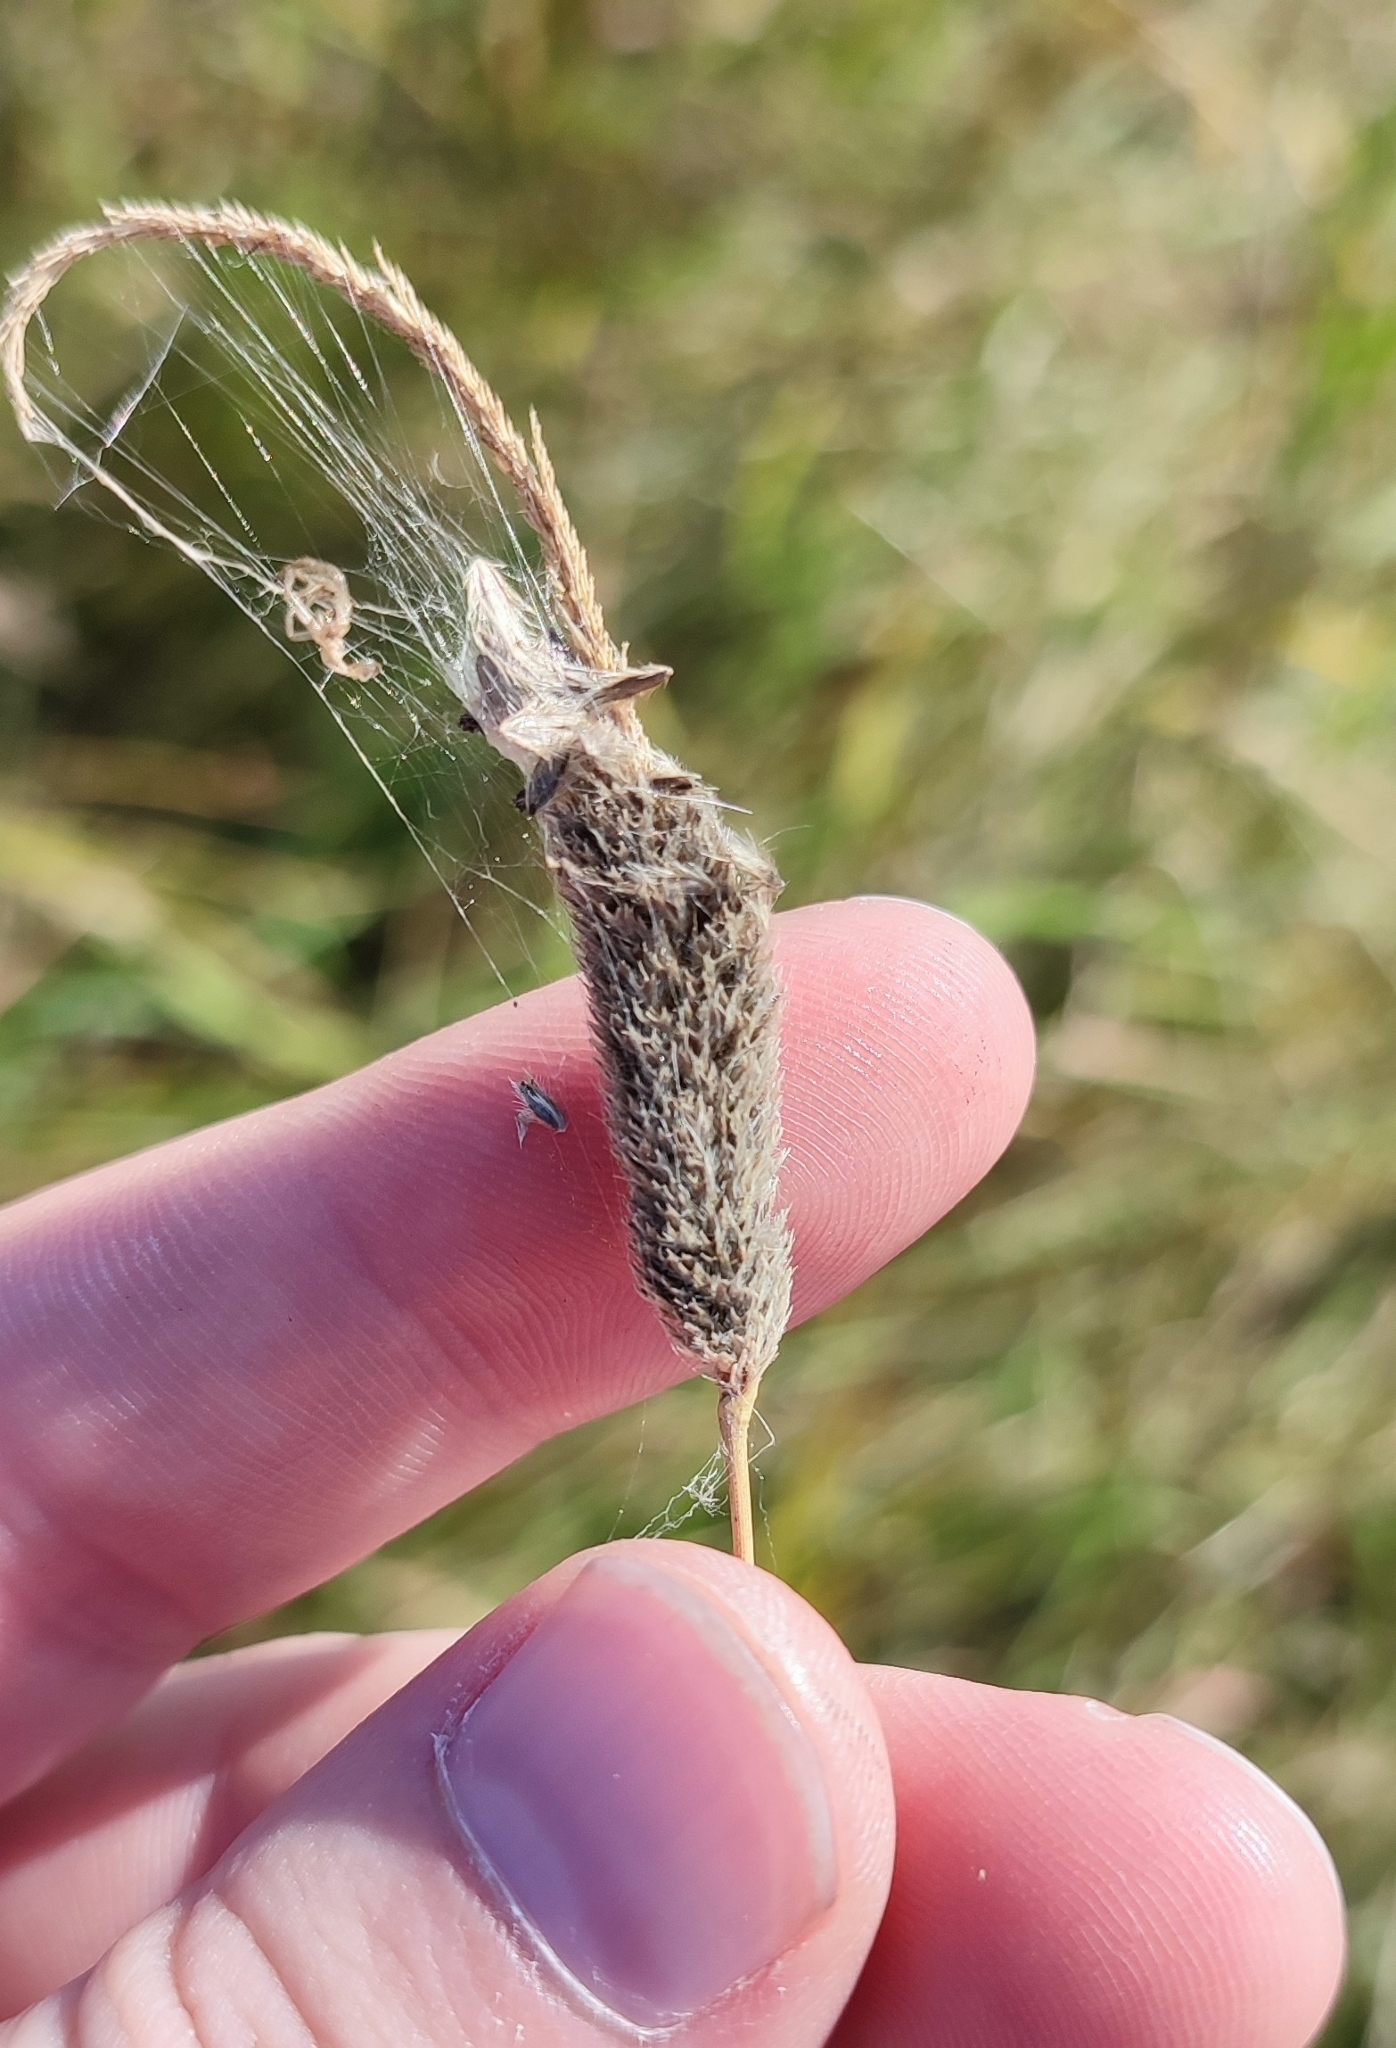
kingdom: Plantae
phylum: Tracheophyta
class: Liliopsida
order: Poales
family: Poaceae
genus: Alopecurus
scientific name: Alopecurus arundinaceus
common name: Creeping meadow foxtail
